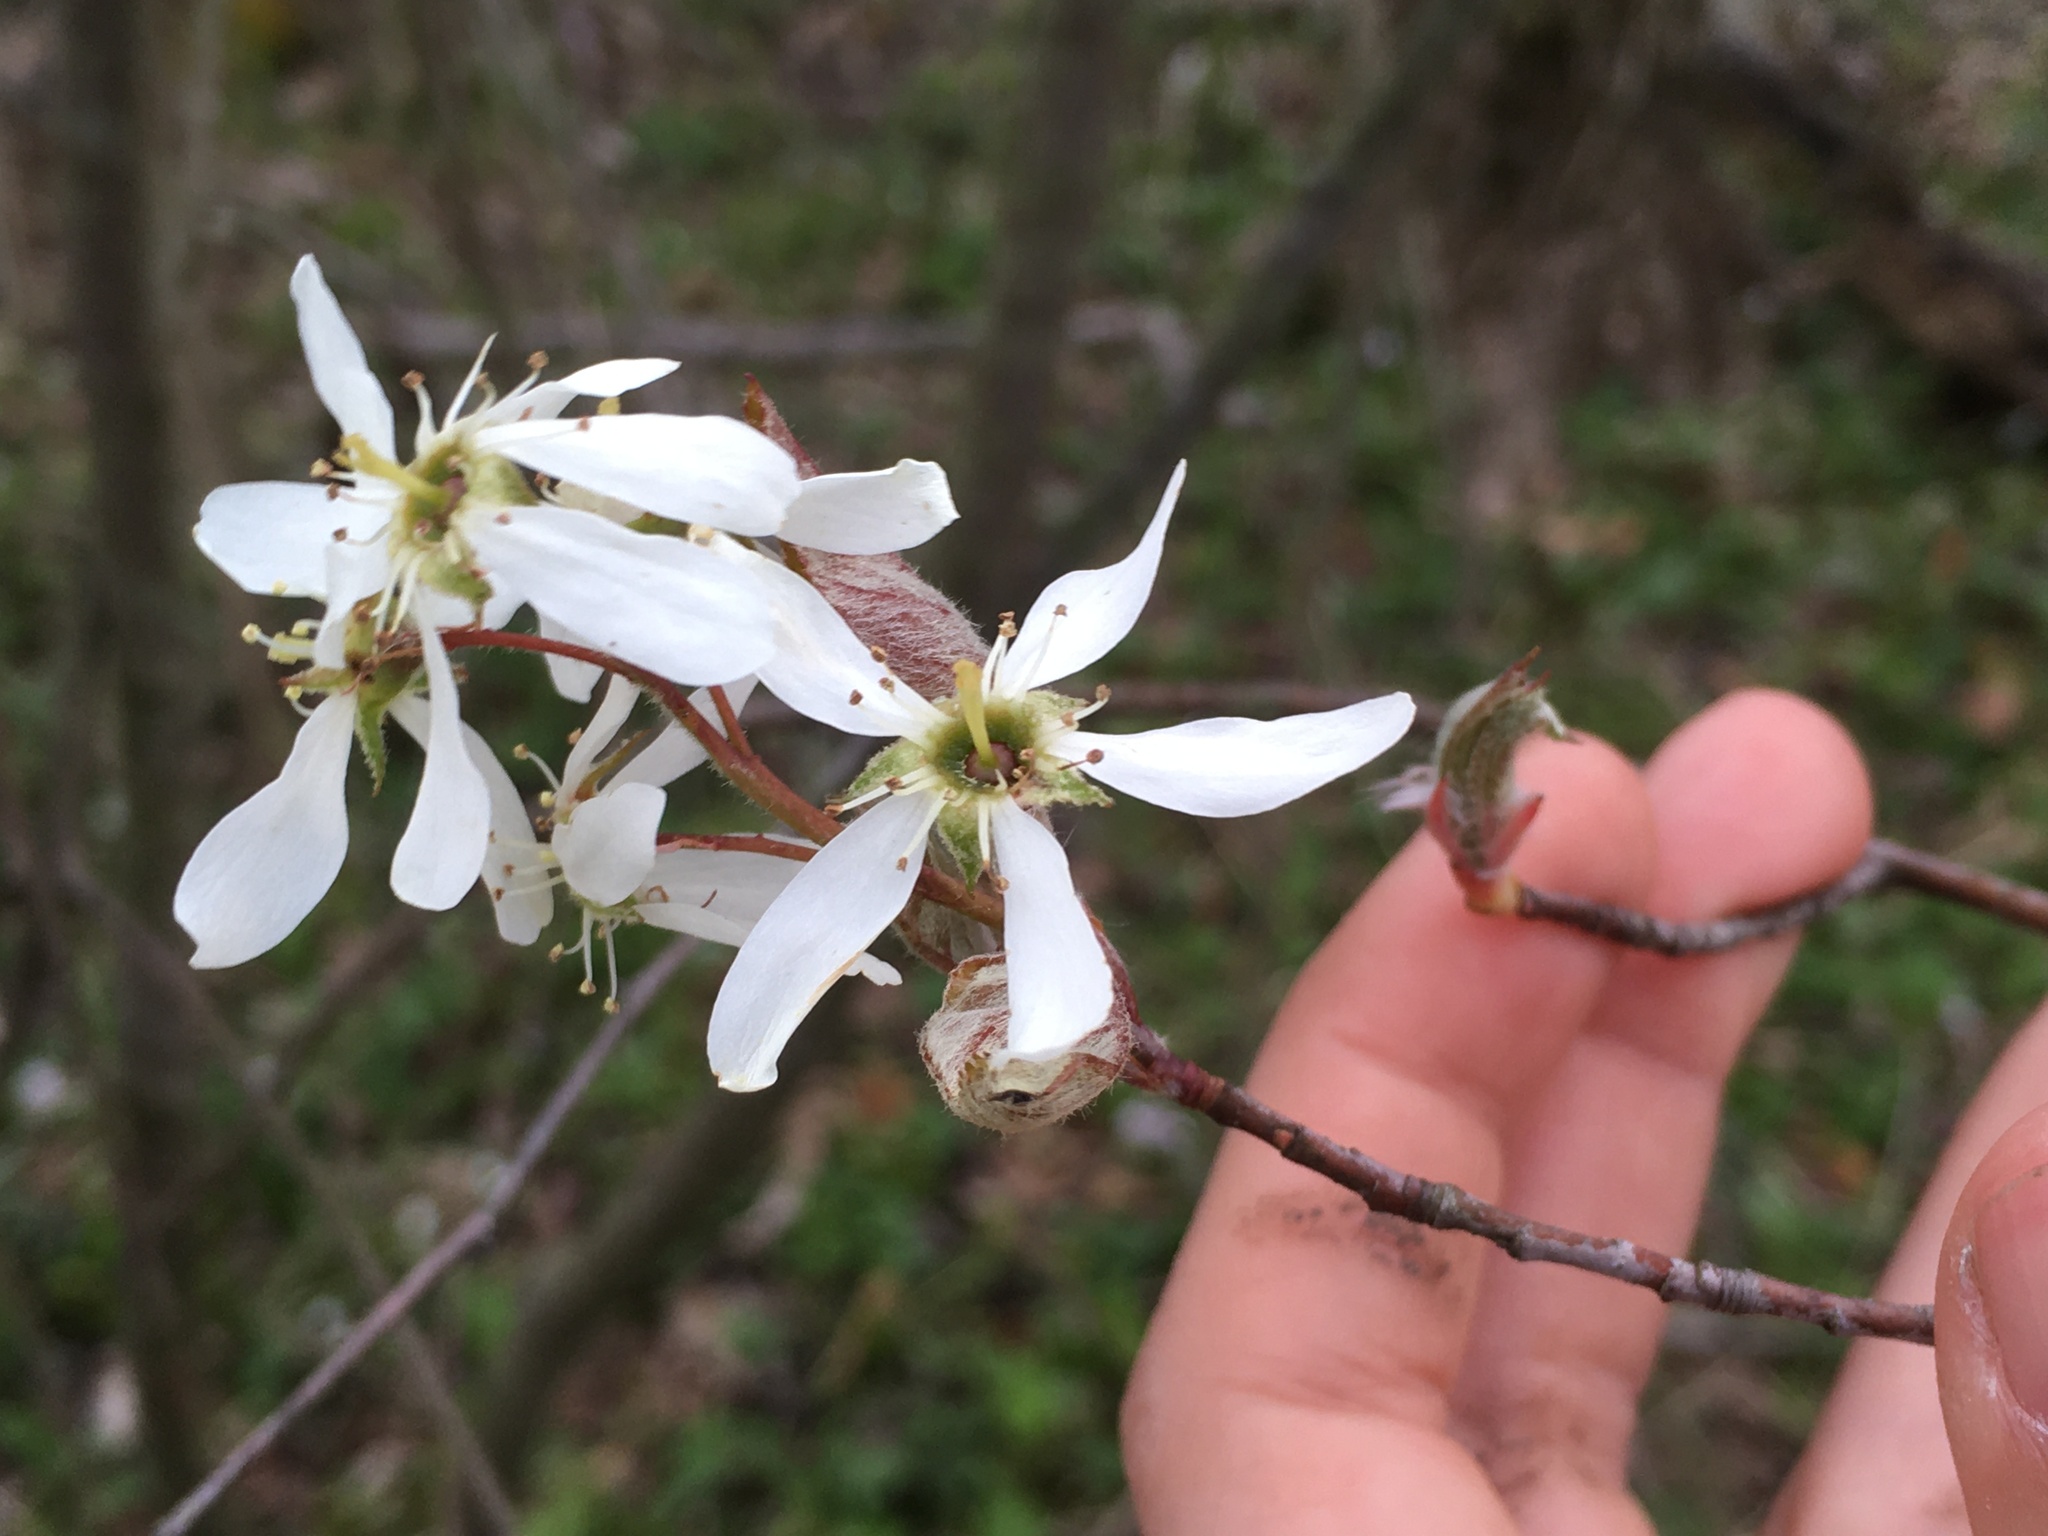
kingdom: Plantae
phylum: Tracheophyta
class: Magnoliopsida
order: Rosales
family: Rosaceae
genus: Amelanchier
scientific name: Amelanchier arborea
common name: Downy serviceberry
